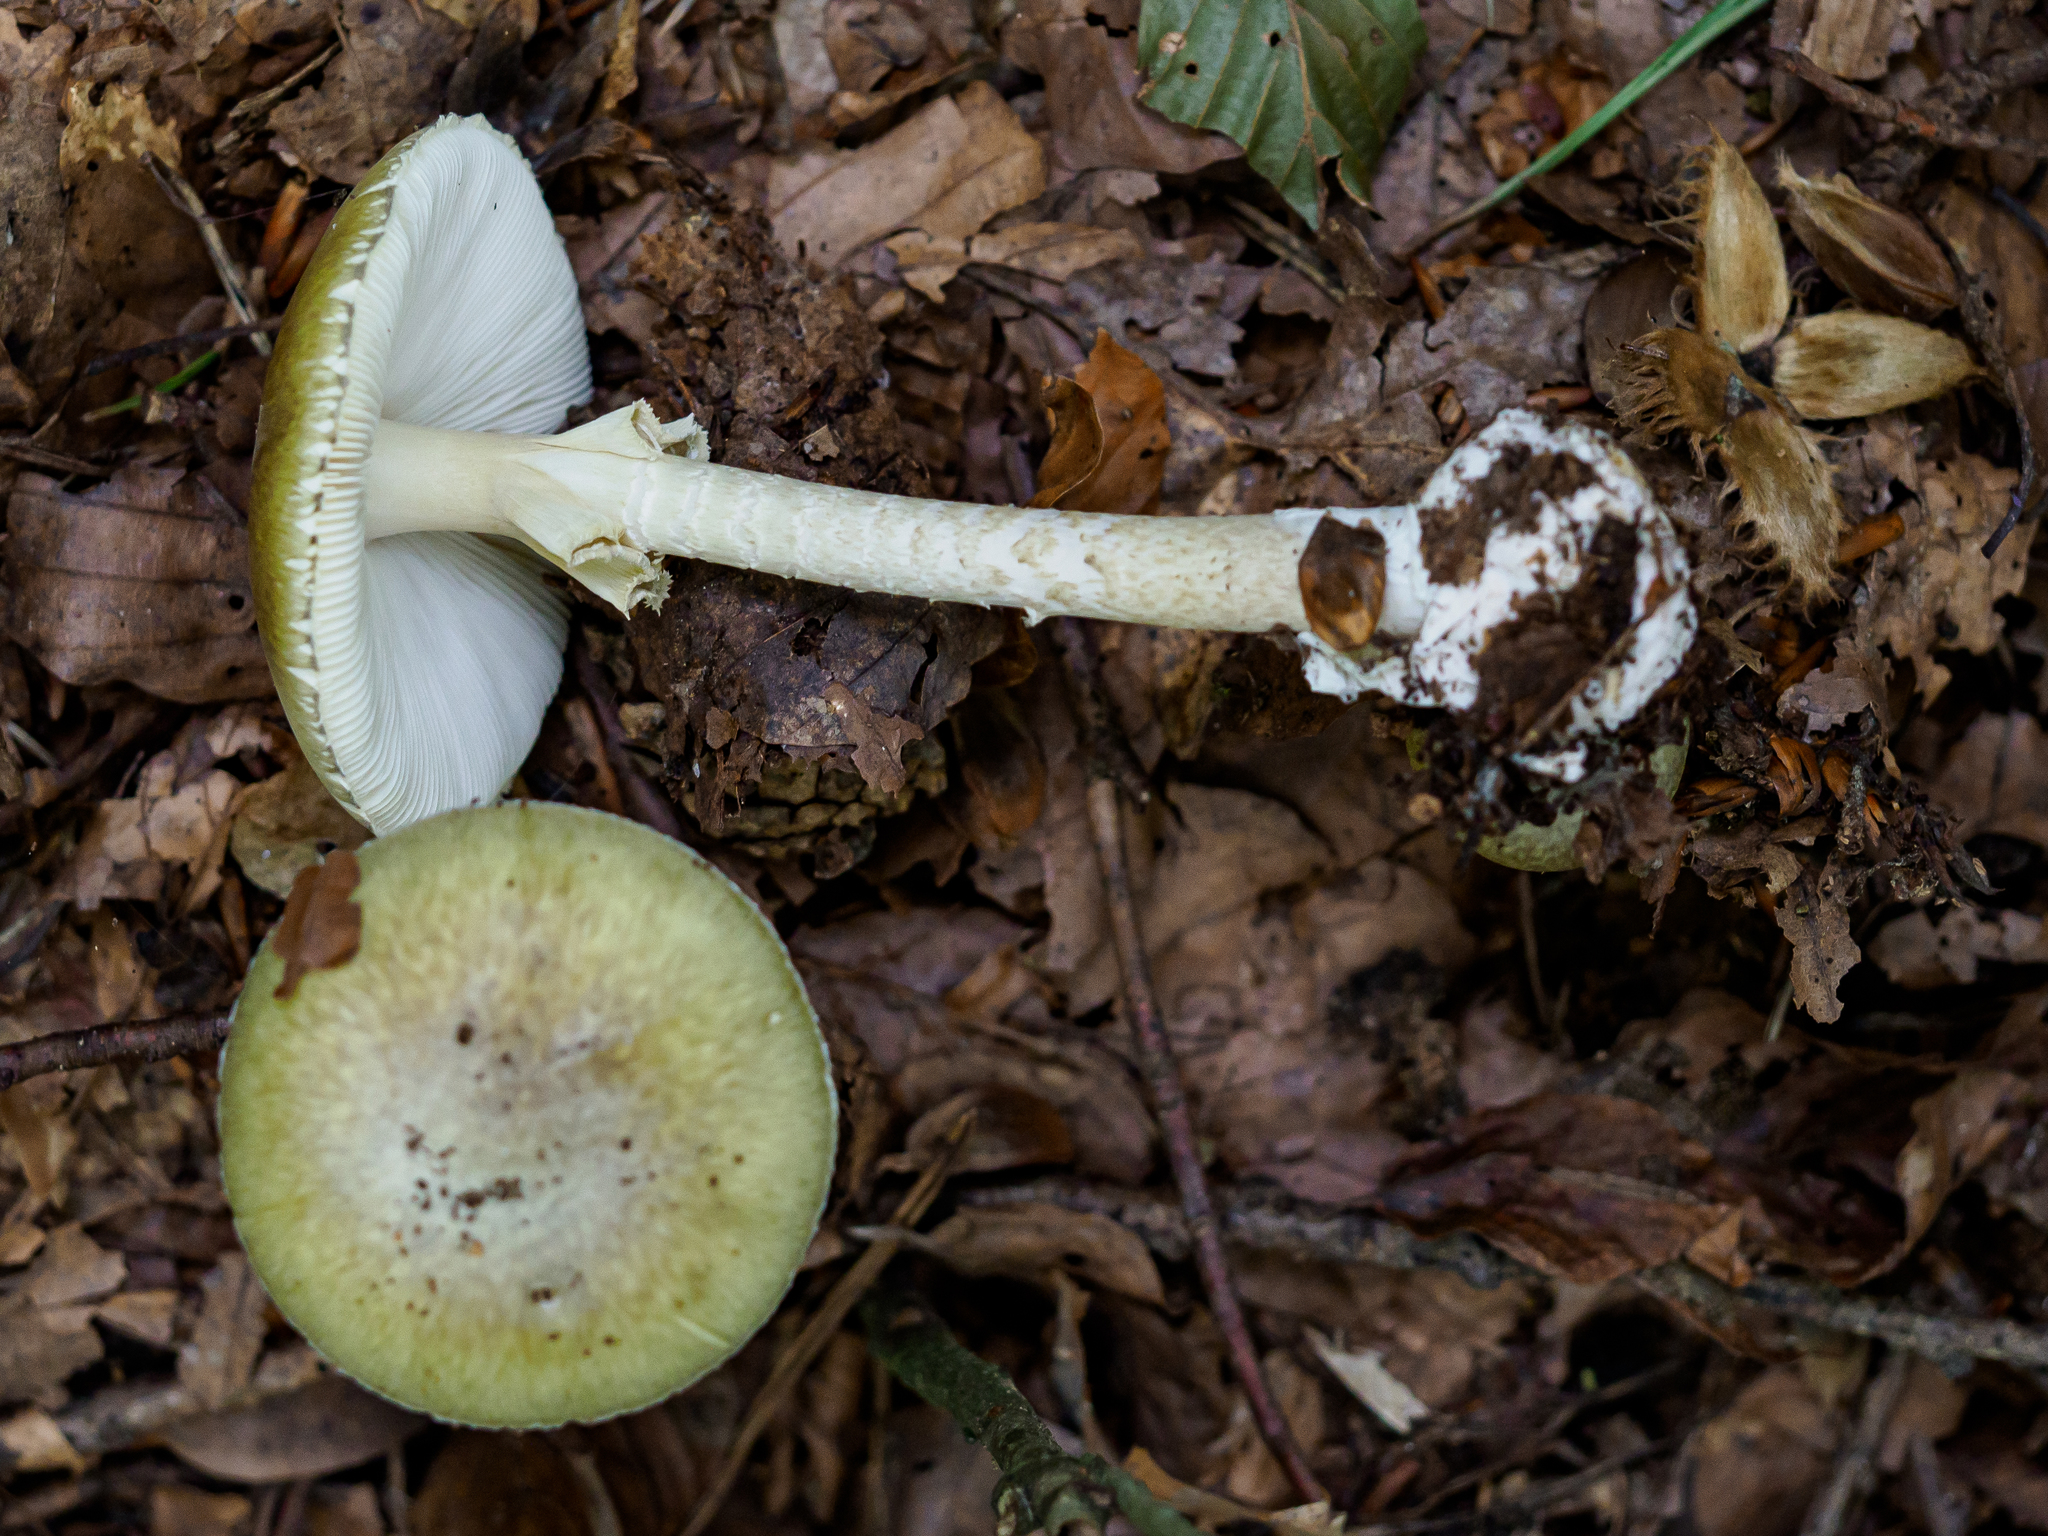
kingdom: Fungi
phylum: Basidiomycota
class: Agaricomycetes
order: Agaricales
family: Amanitaceae
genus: Amanita
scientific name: Amanita phalloides
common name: Death cap
